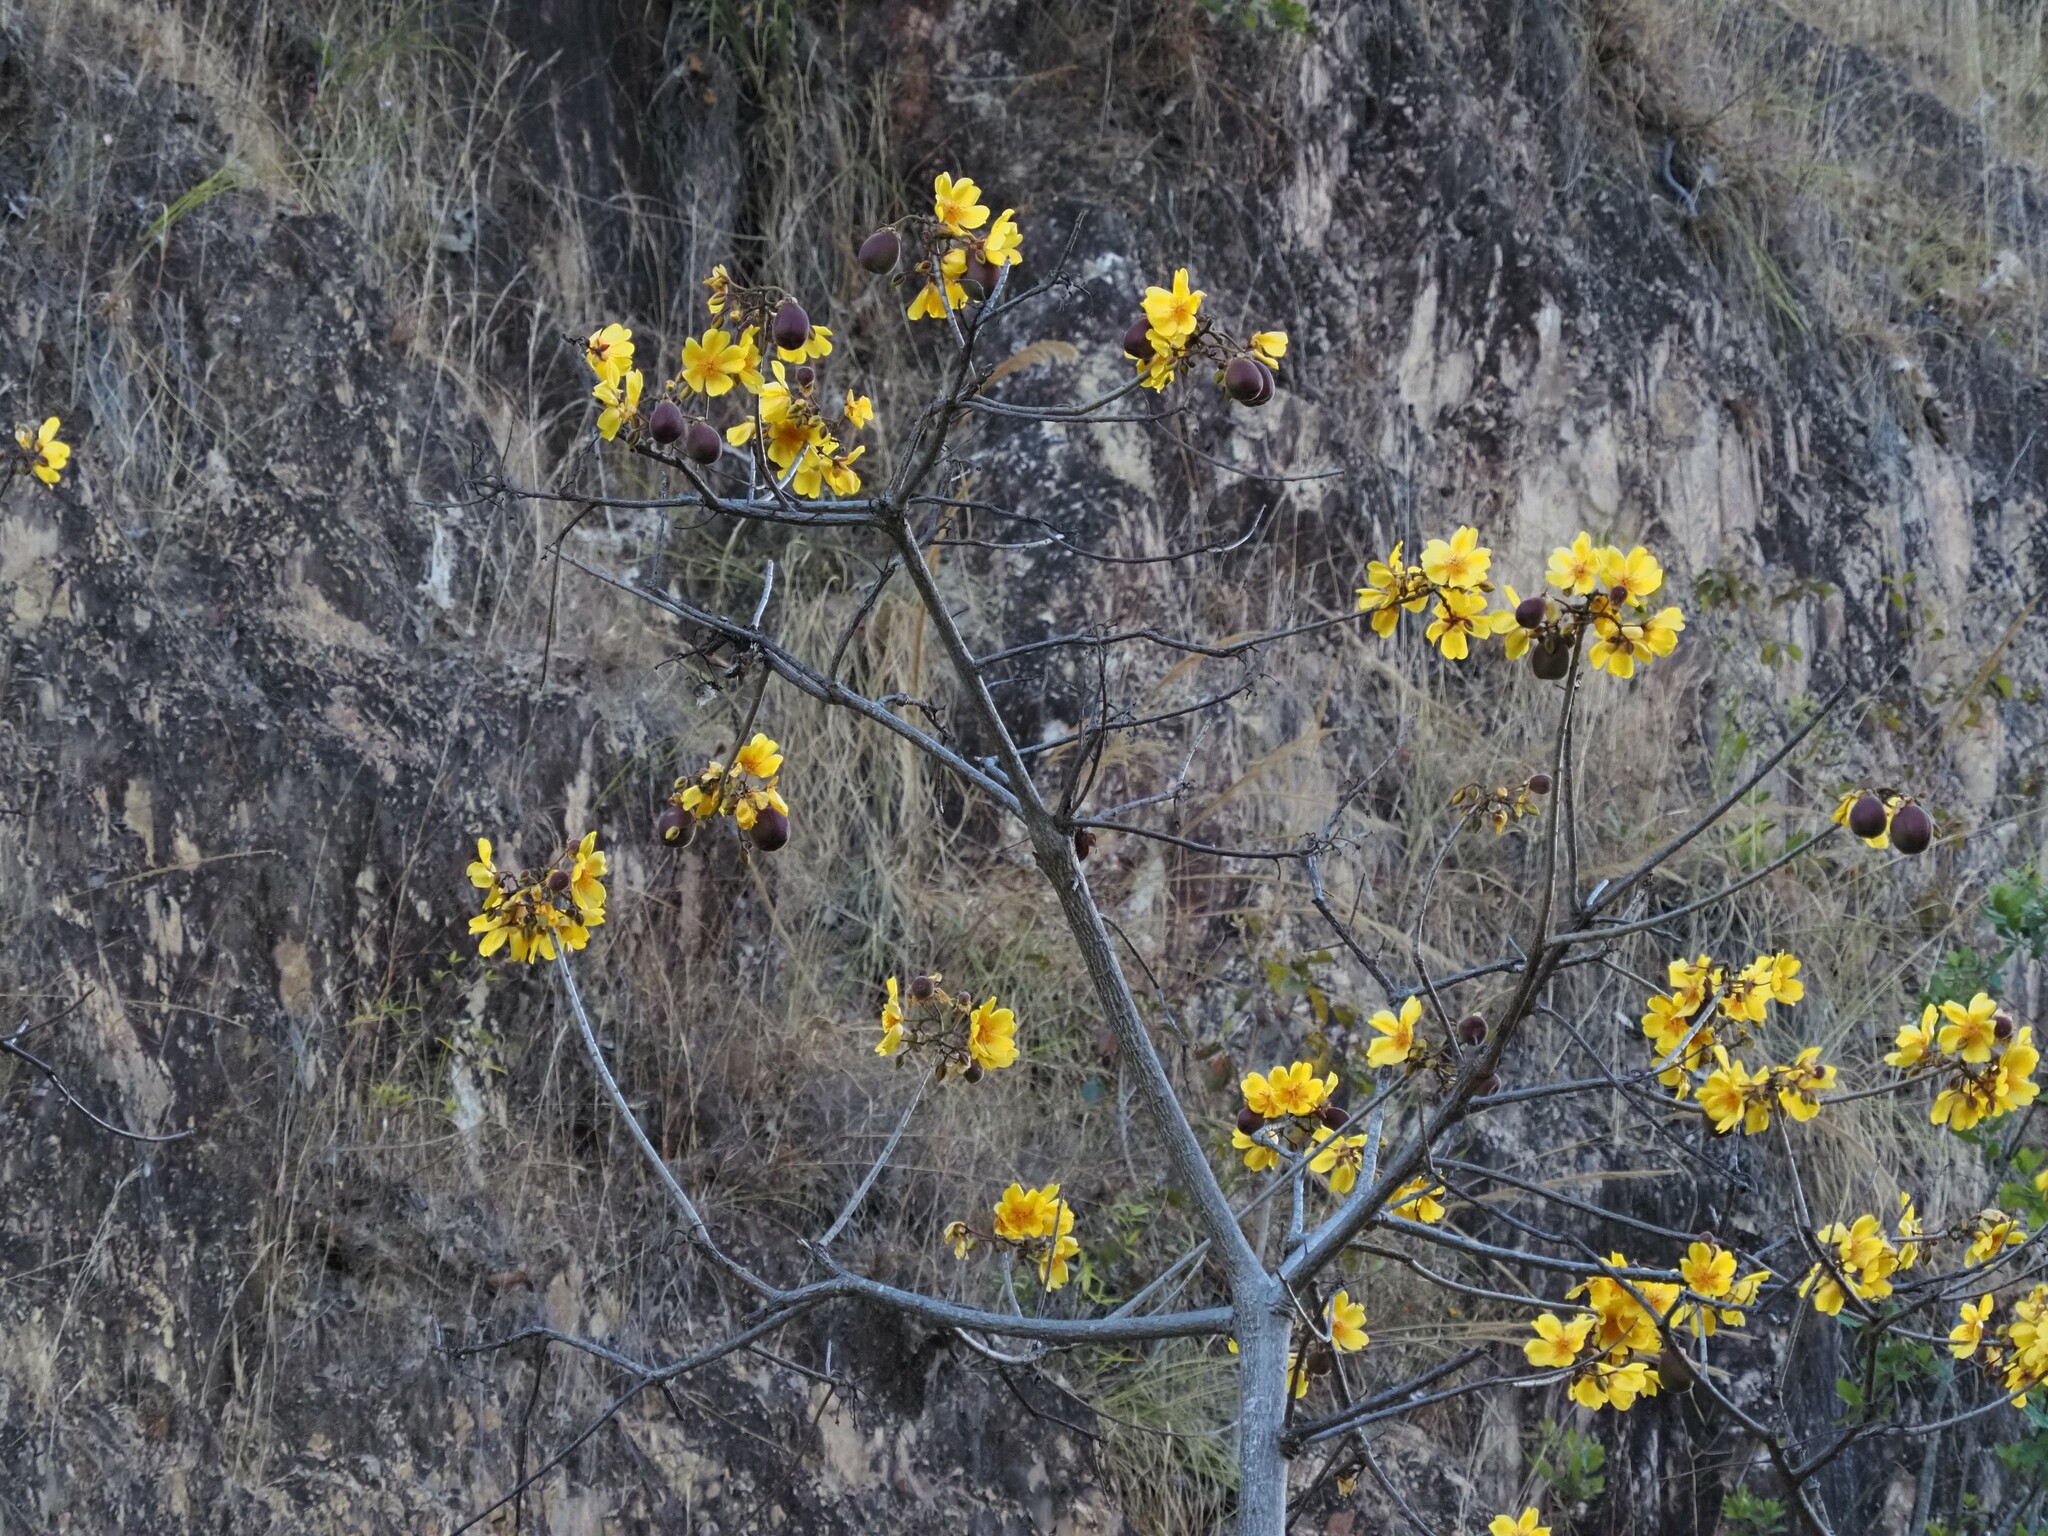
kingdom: Plantae
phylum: Tracheophyta
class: Magnoliopsida
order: Malvales
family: Cochlospermaceae
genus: Cochlospermum
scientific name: Cochlospermum vitifolium
